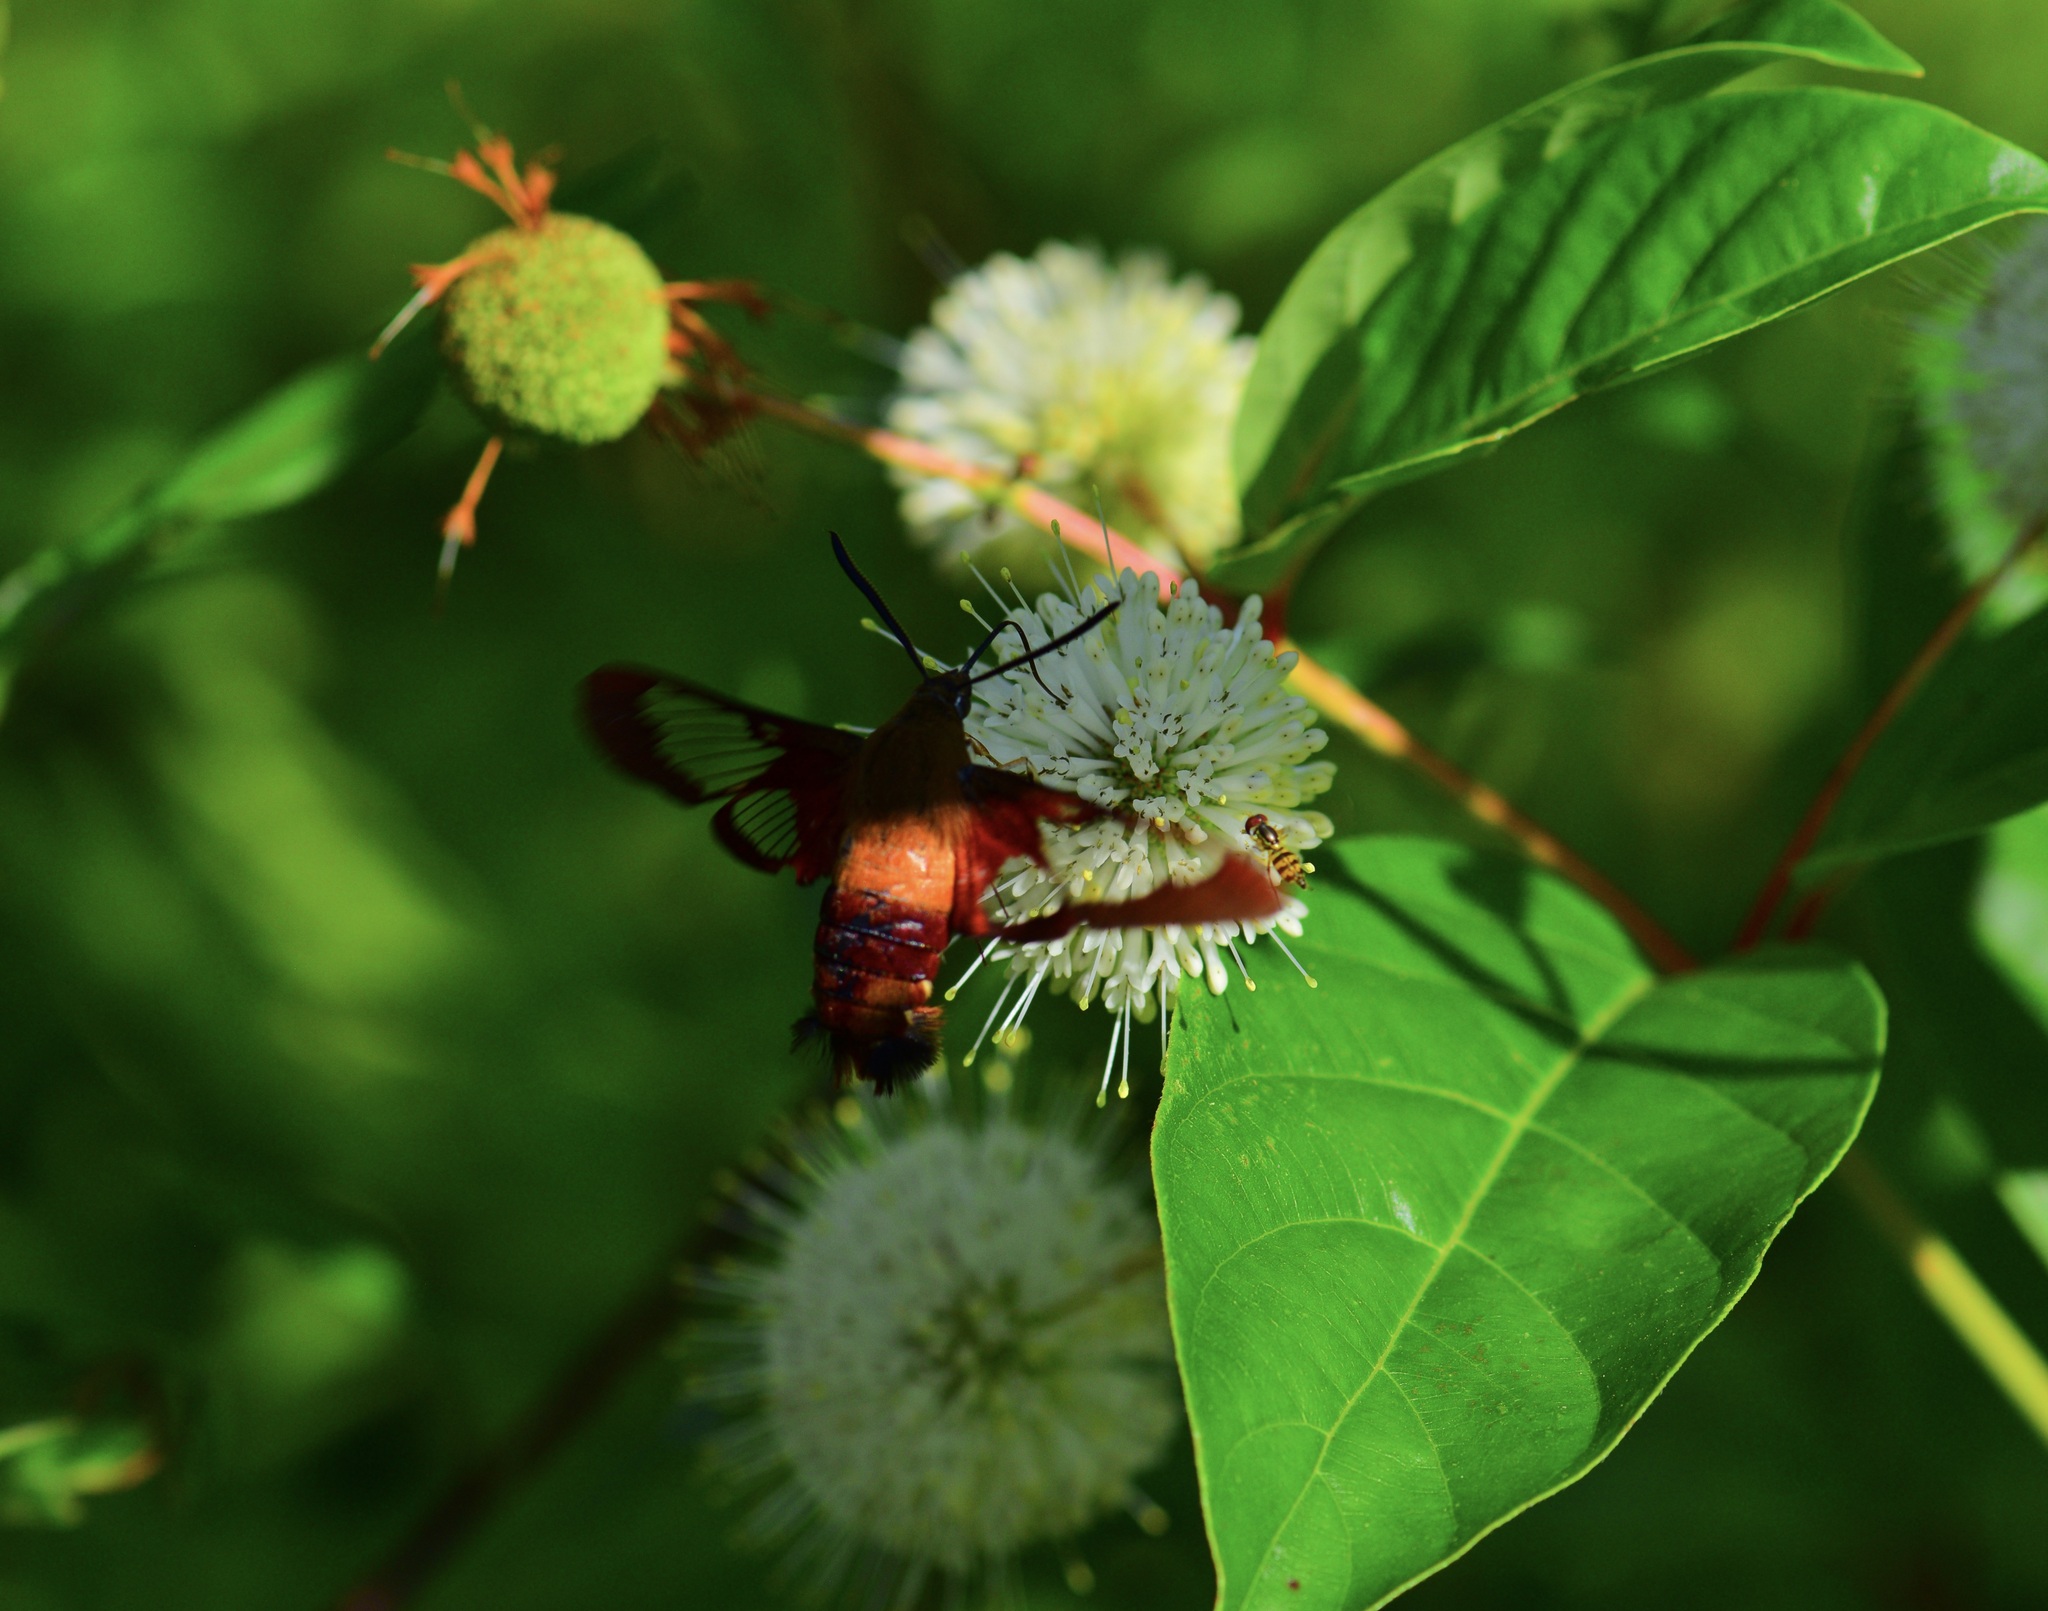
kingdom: Animalia
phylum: Arthropoda
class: Insecta
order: Lepidoptera
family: Sphingidae
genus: Hemaris
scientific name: Hemaris thysbe
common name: Common clear-wing
